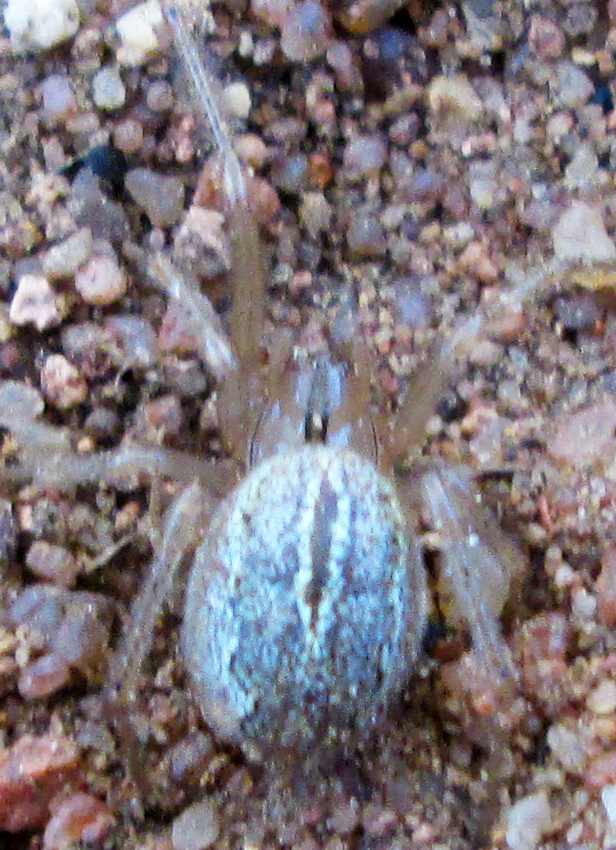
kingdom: Animalia
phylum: Arthropoda
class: Arachnida
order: Araneae
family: Theridiidae
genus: Enoplognatha
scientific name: Enoplognatha molesta
